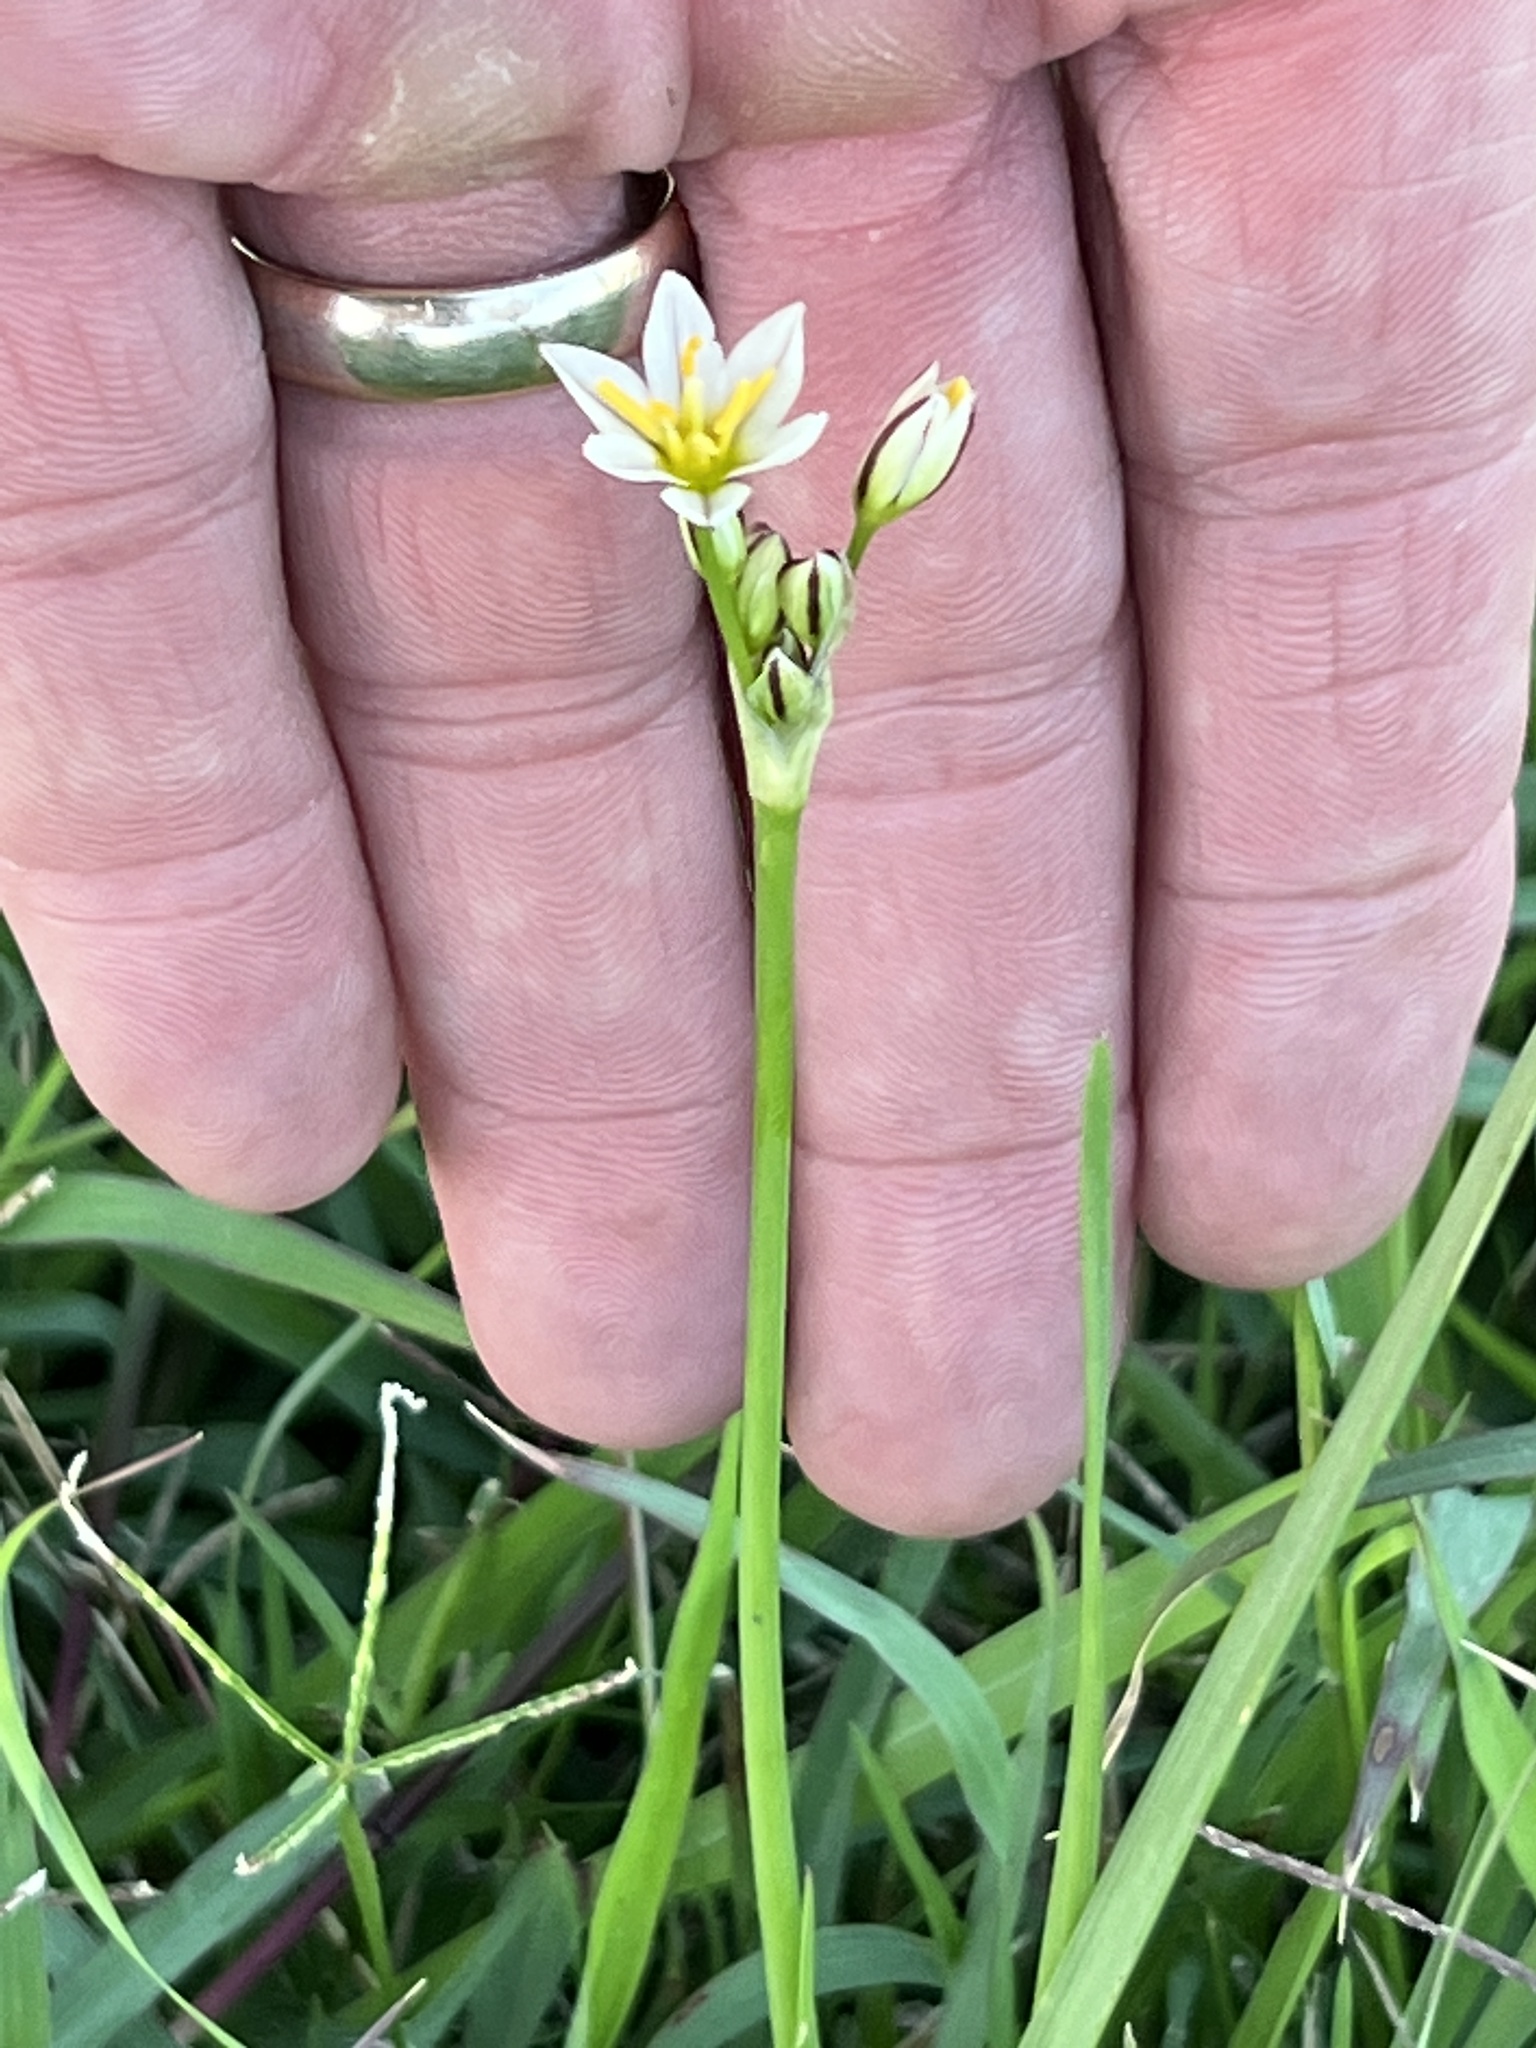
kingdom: Plantae
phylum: Tracheophyta
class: Liliopsida
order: Asparagales
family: Amaryllidaceae
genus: Nothoscordum
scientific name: Nothoscordum bivalve
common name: Crow-poison
